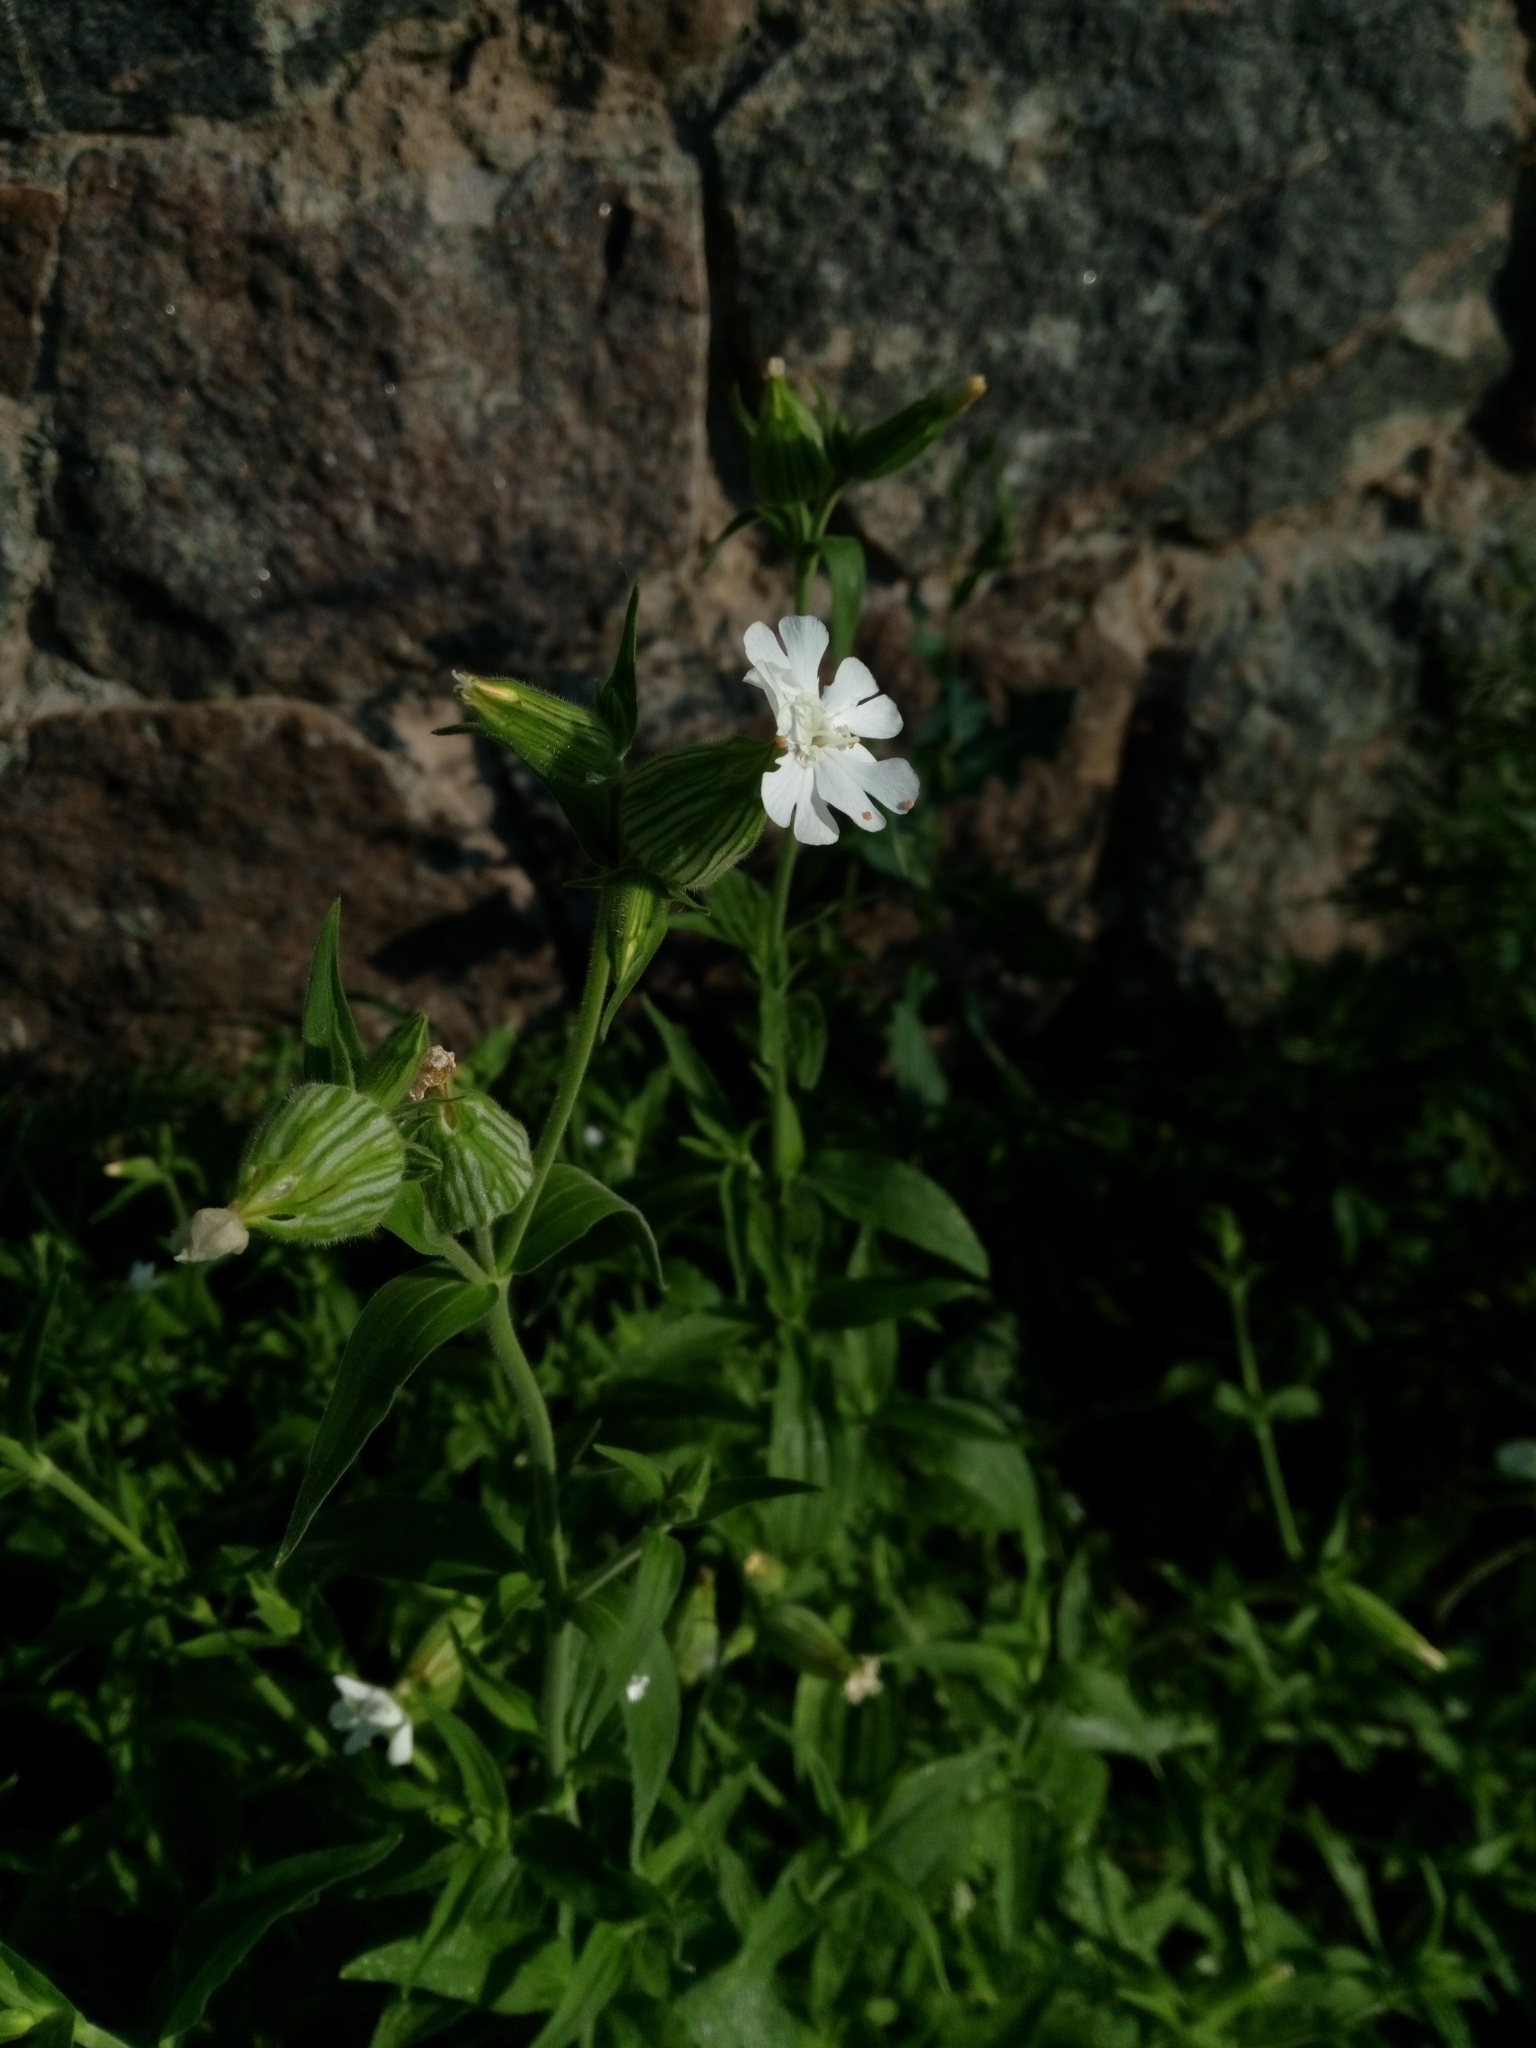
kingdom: Plantae
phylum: Tracheophyta
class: Magnoliopsida
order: Caryophyllales
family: Caryophyllaceae
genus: Silene
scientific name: Silene latifolia
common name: White campion
